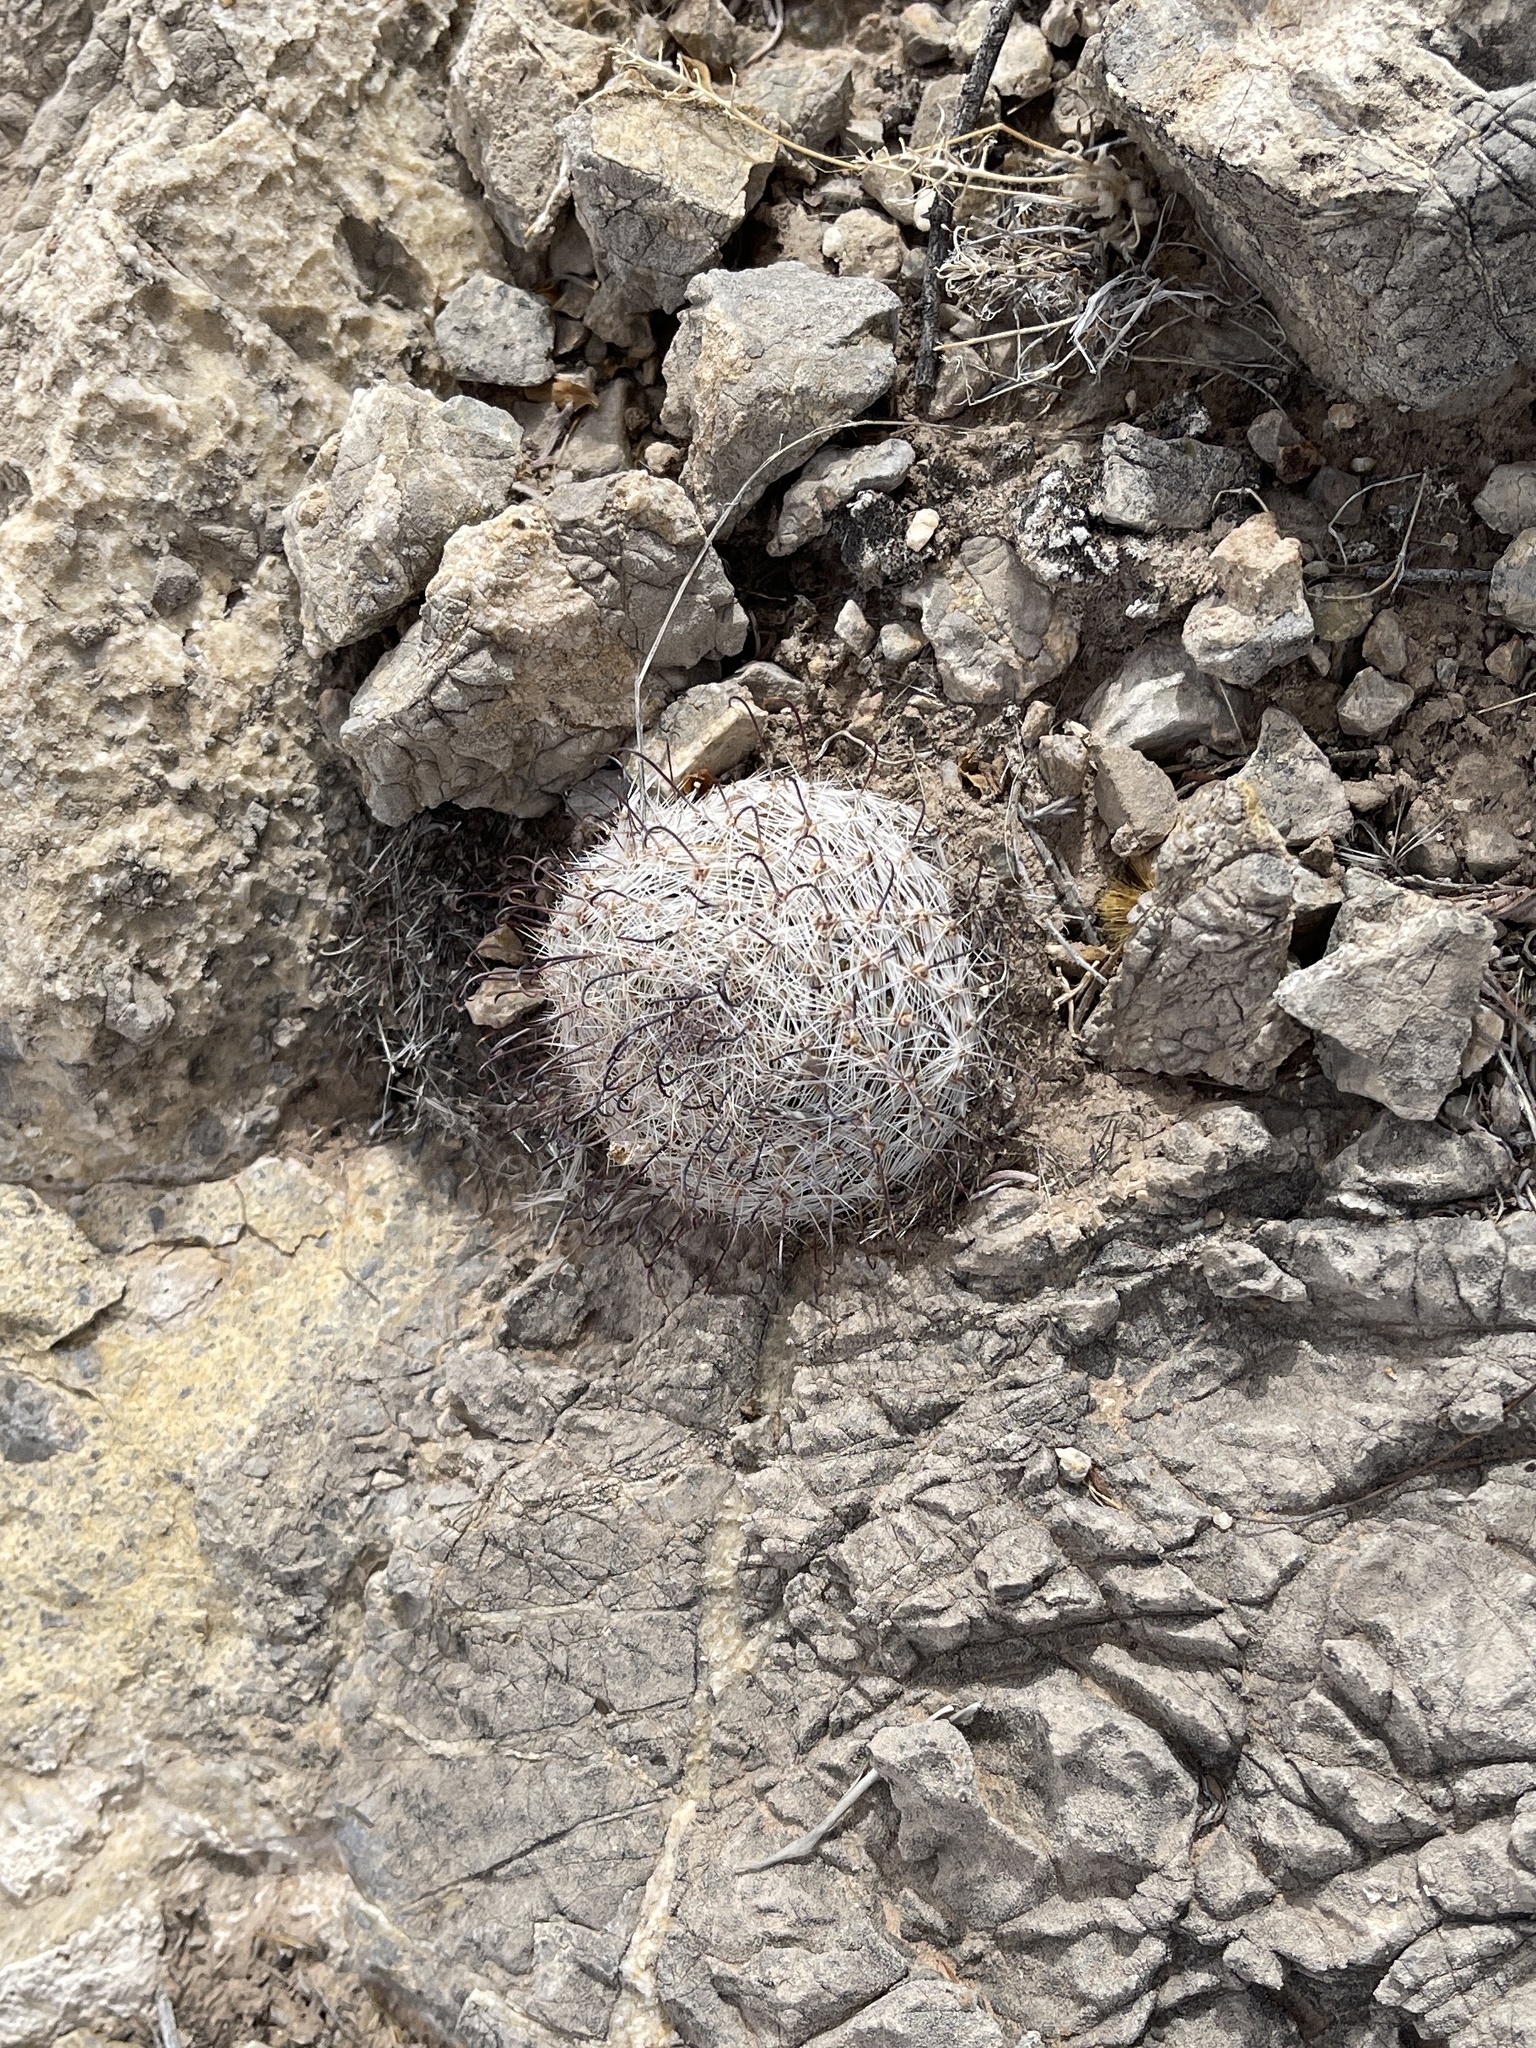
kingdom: Plantae
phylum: Tracheophyta
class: Magnoliopsida
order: Caryophyllales
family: Cactaceae
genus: Cochemiea
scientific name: Cochemiea grahamii
